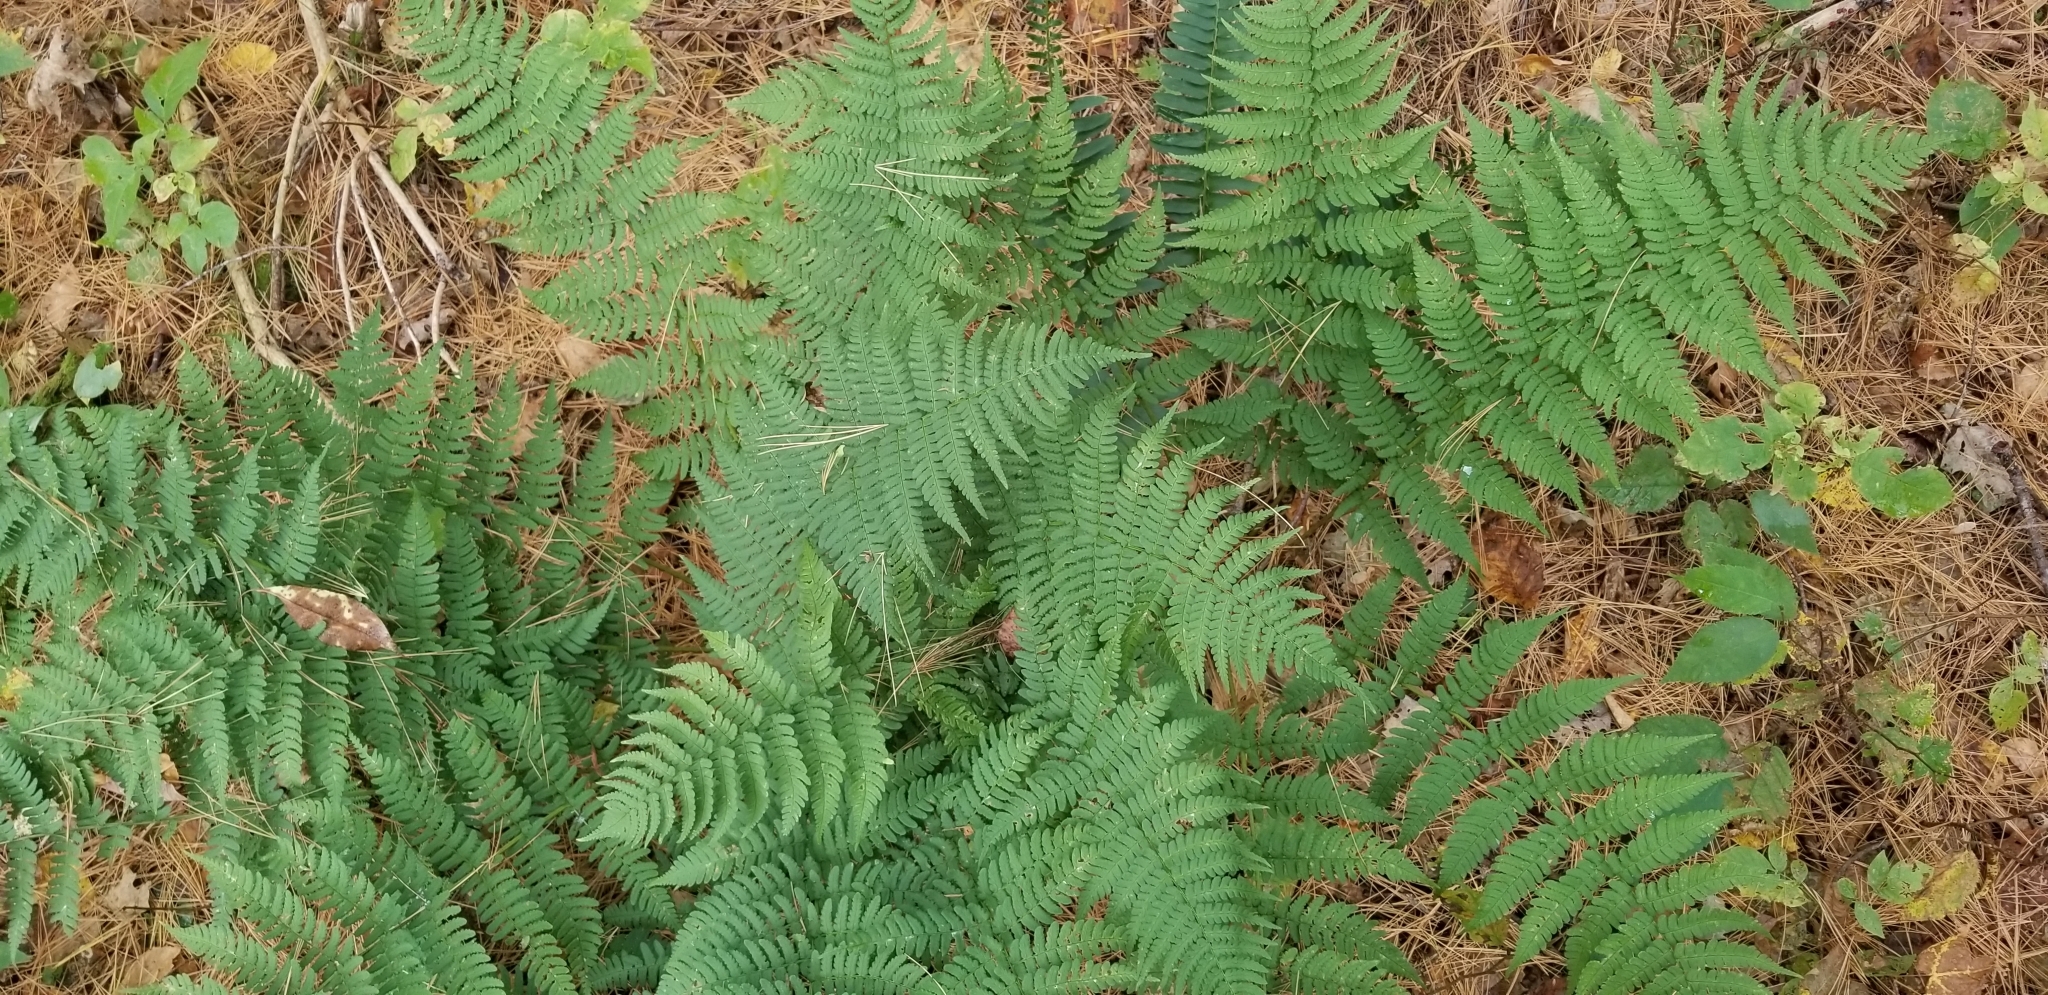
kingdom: Plantae
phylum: Tracheophyta
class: Polypodiopsida
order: Polypodiales
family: Dryopteridaceae
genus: Dryopteris
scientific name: Dryopteris marginalis
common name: Marginal wood fern
